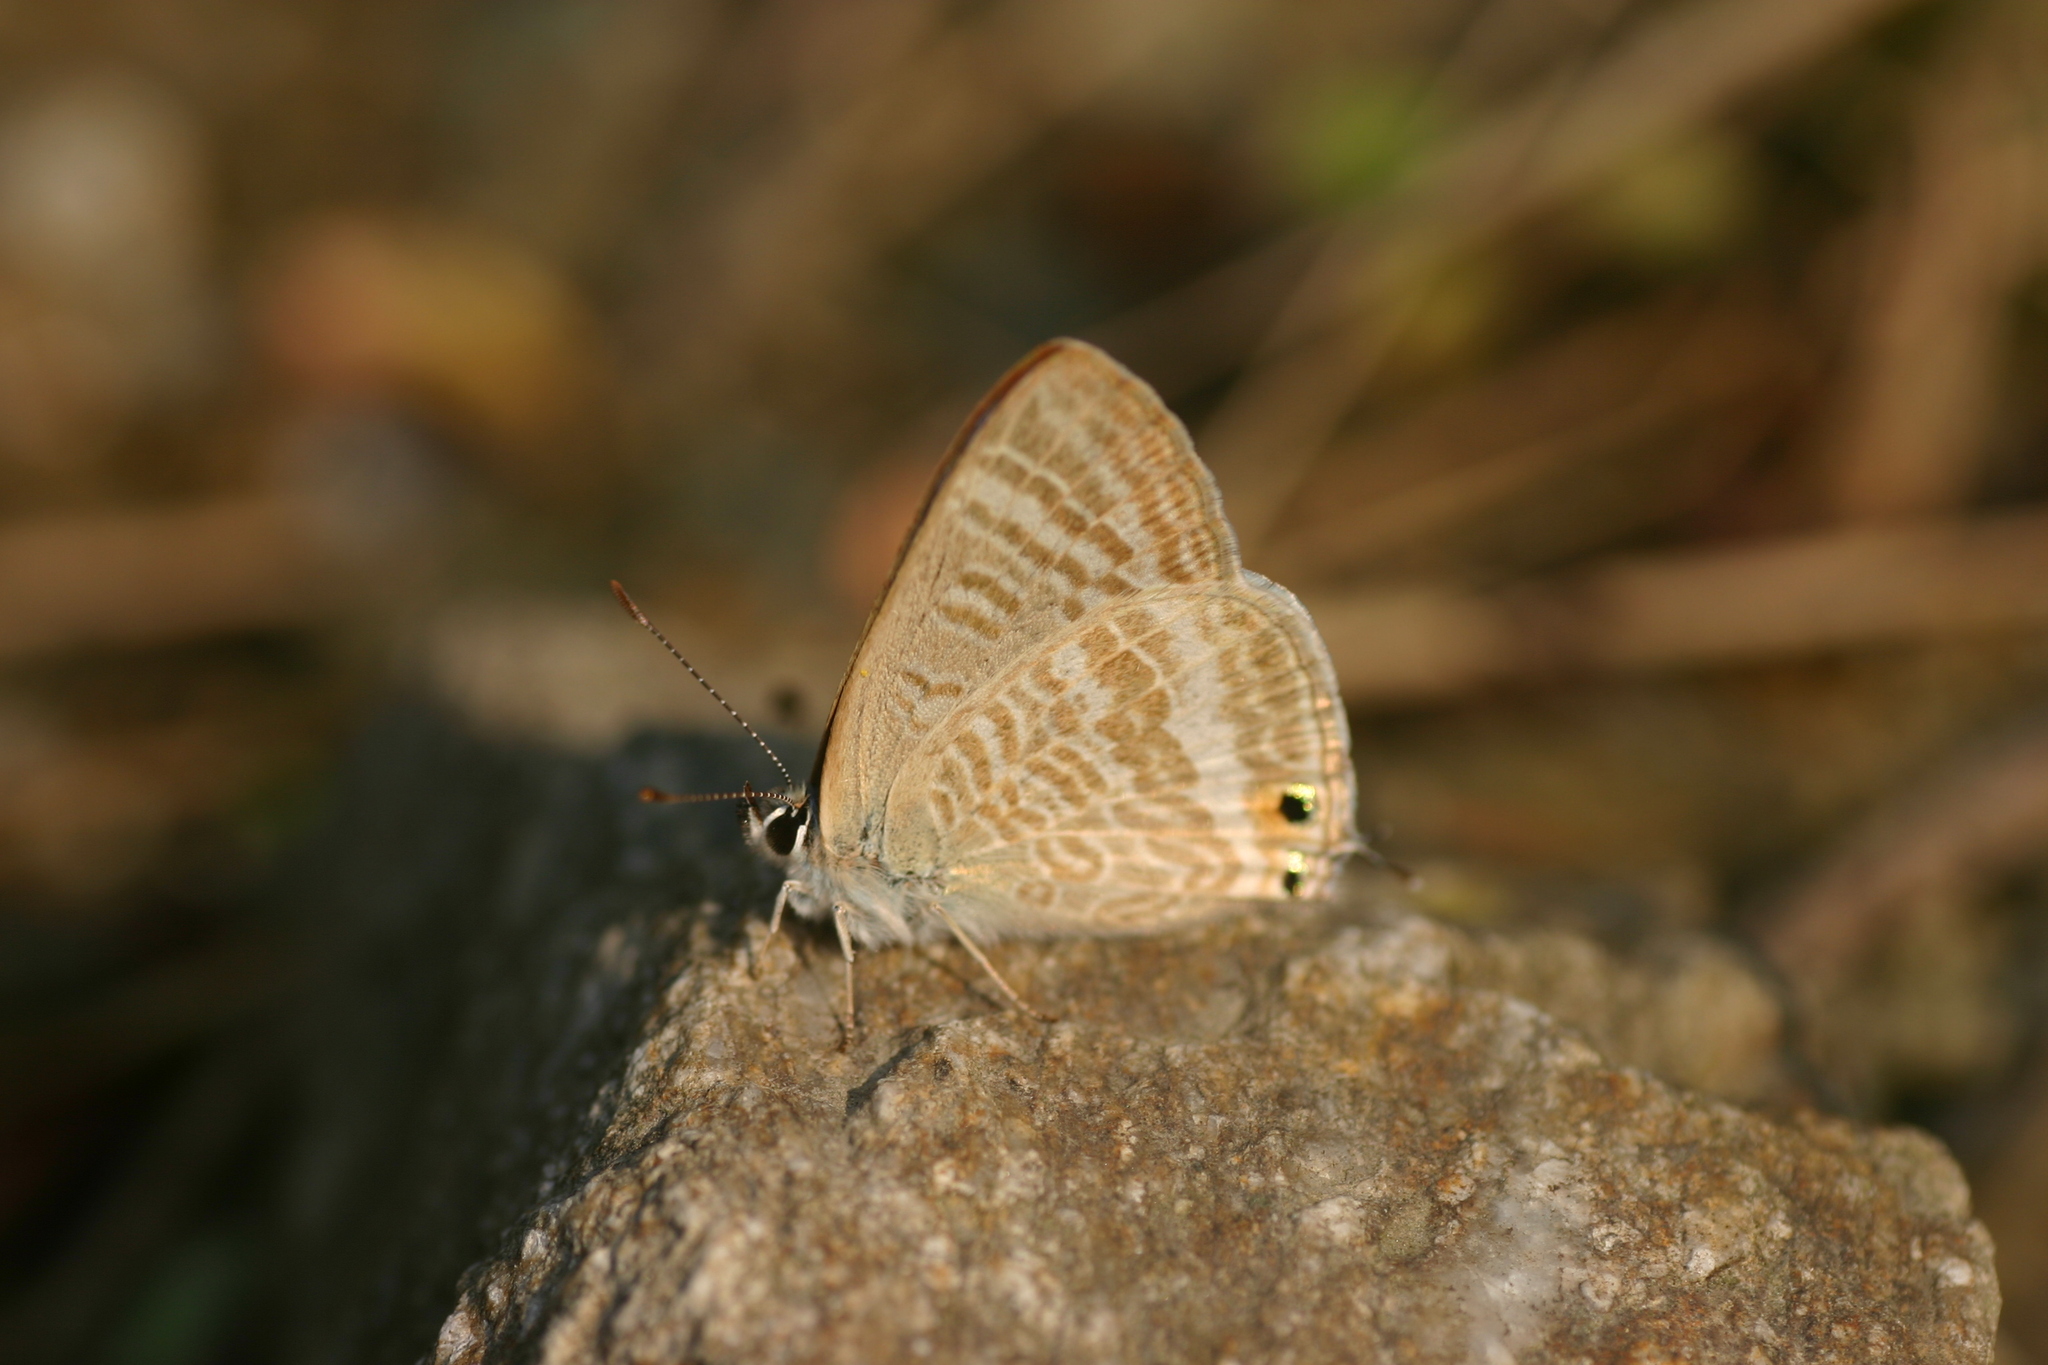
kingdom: Animalia
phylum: Arthropoda
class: Insecta
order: Lepidoptera
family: Lycaenidae
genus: Lampides
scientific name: Lampides boeticus
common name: Long-tailed blue
